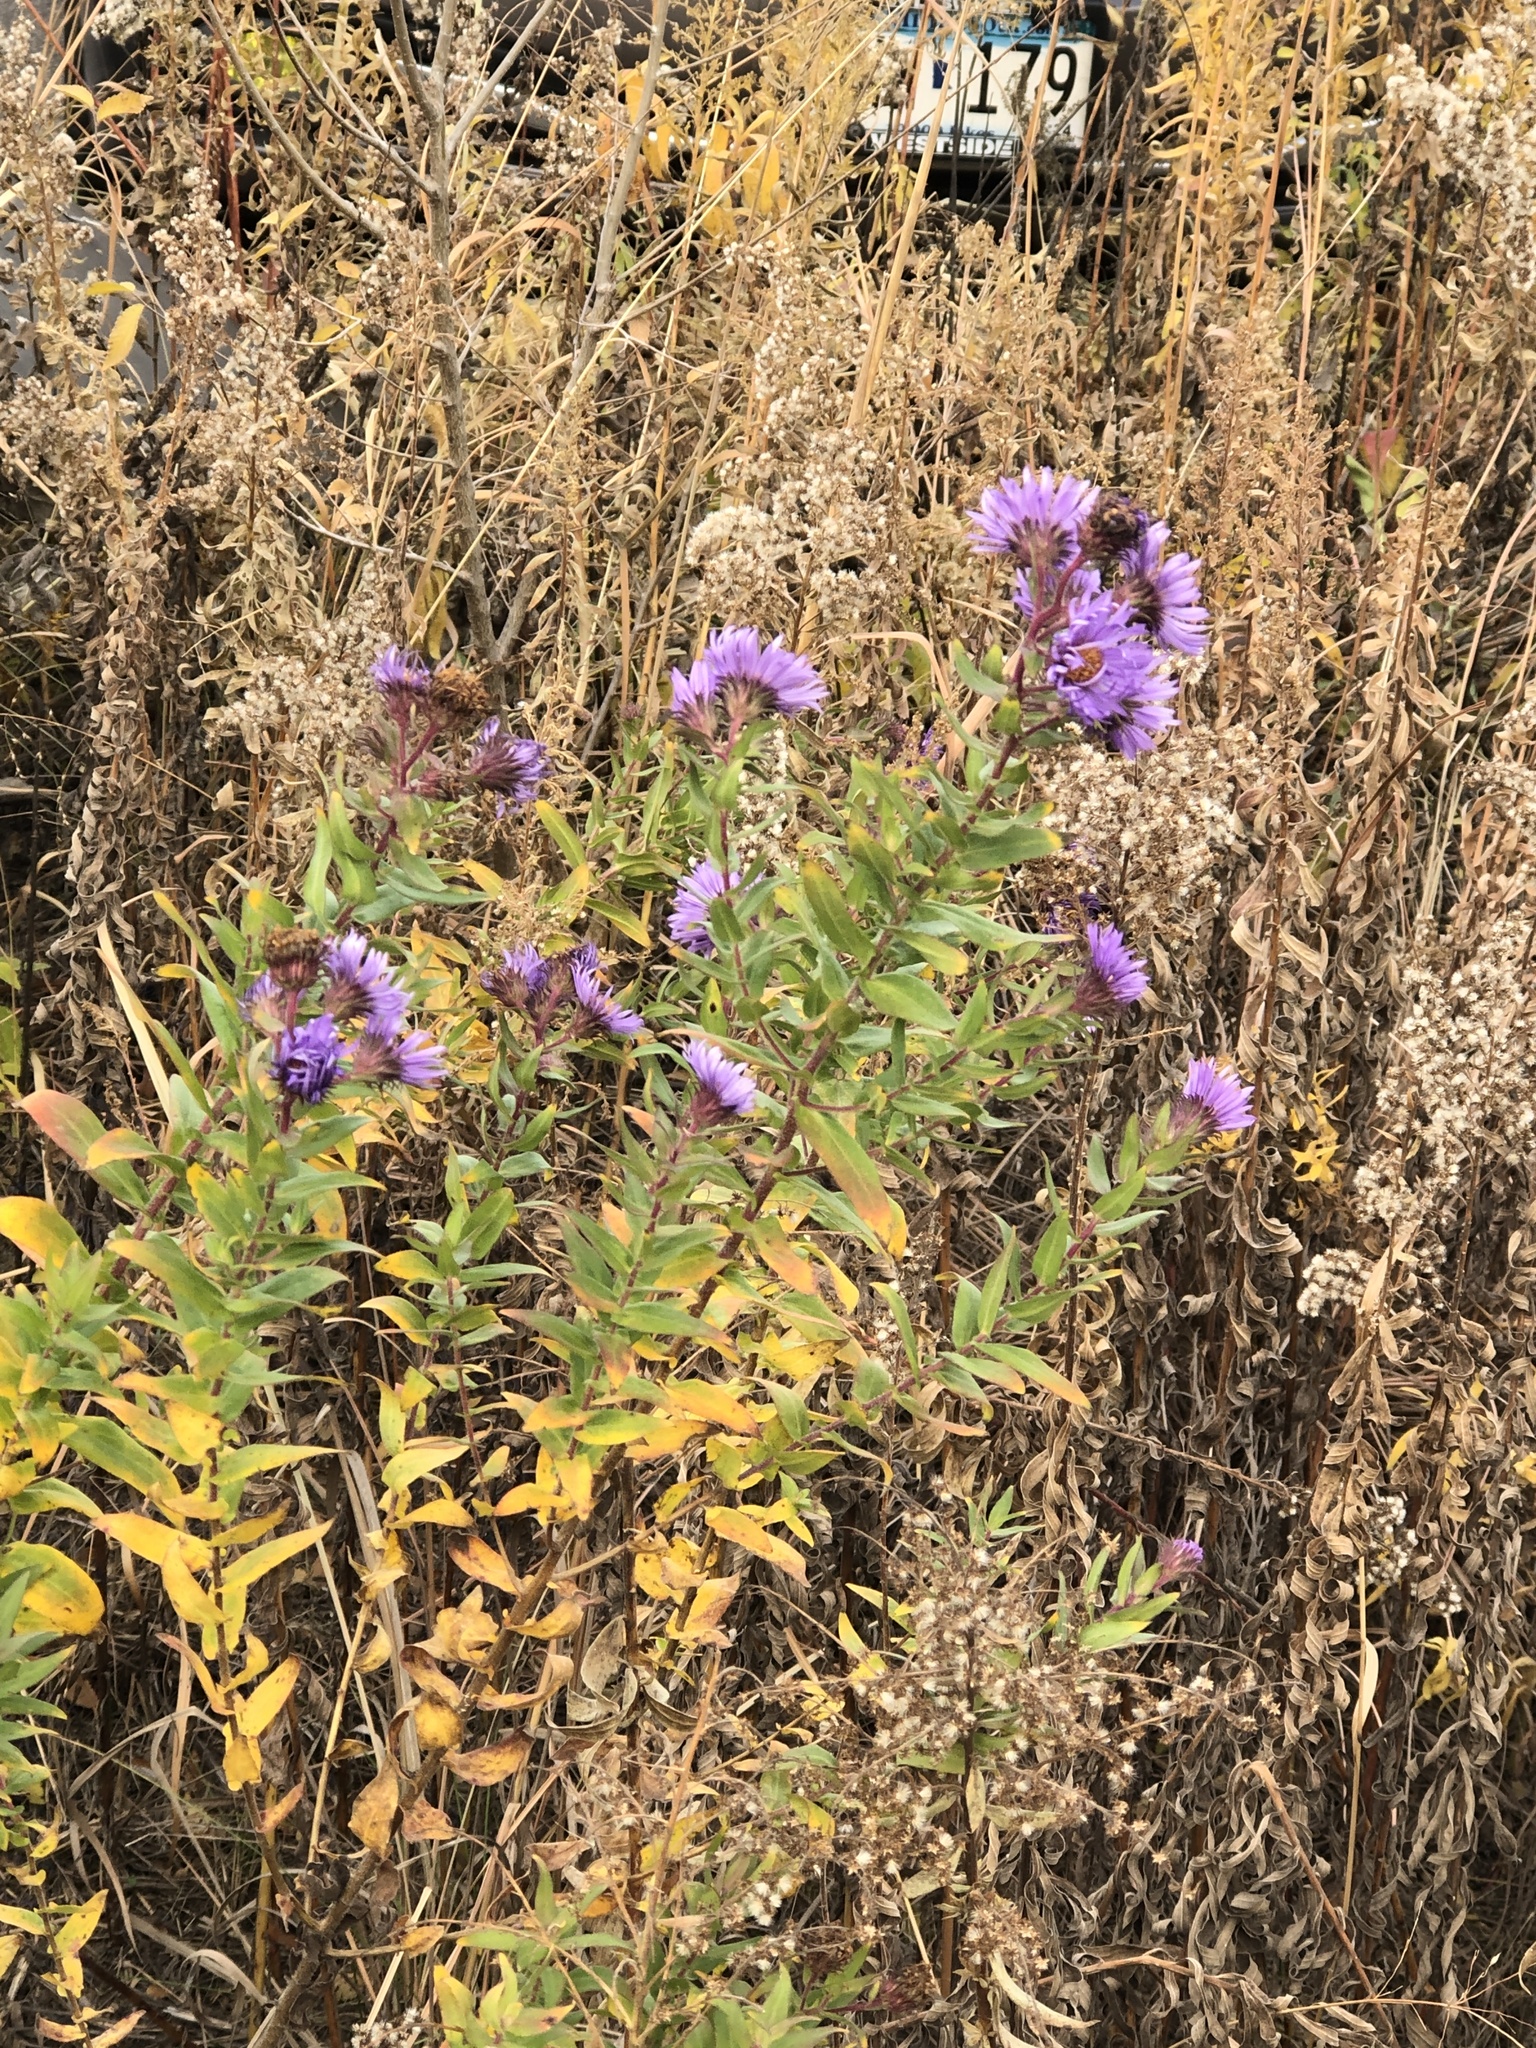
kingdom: Plantae
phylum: Tracheophyta
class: Magnoliopsida
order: Asterales
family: Asteraceae
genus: Symphyotrichum
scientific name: Symphyotrichum novae-angliae
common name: Michaelmas daisy
